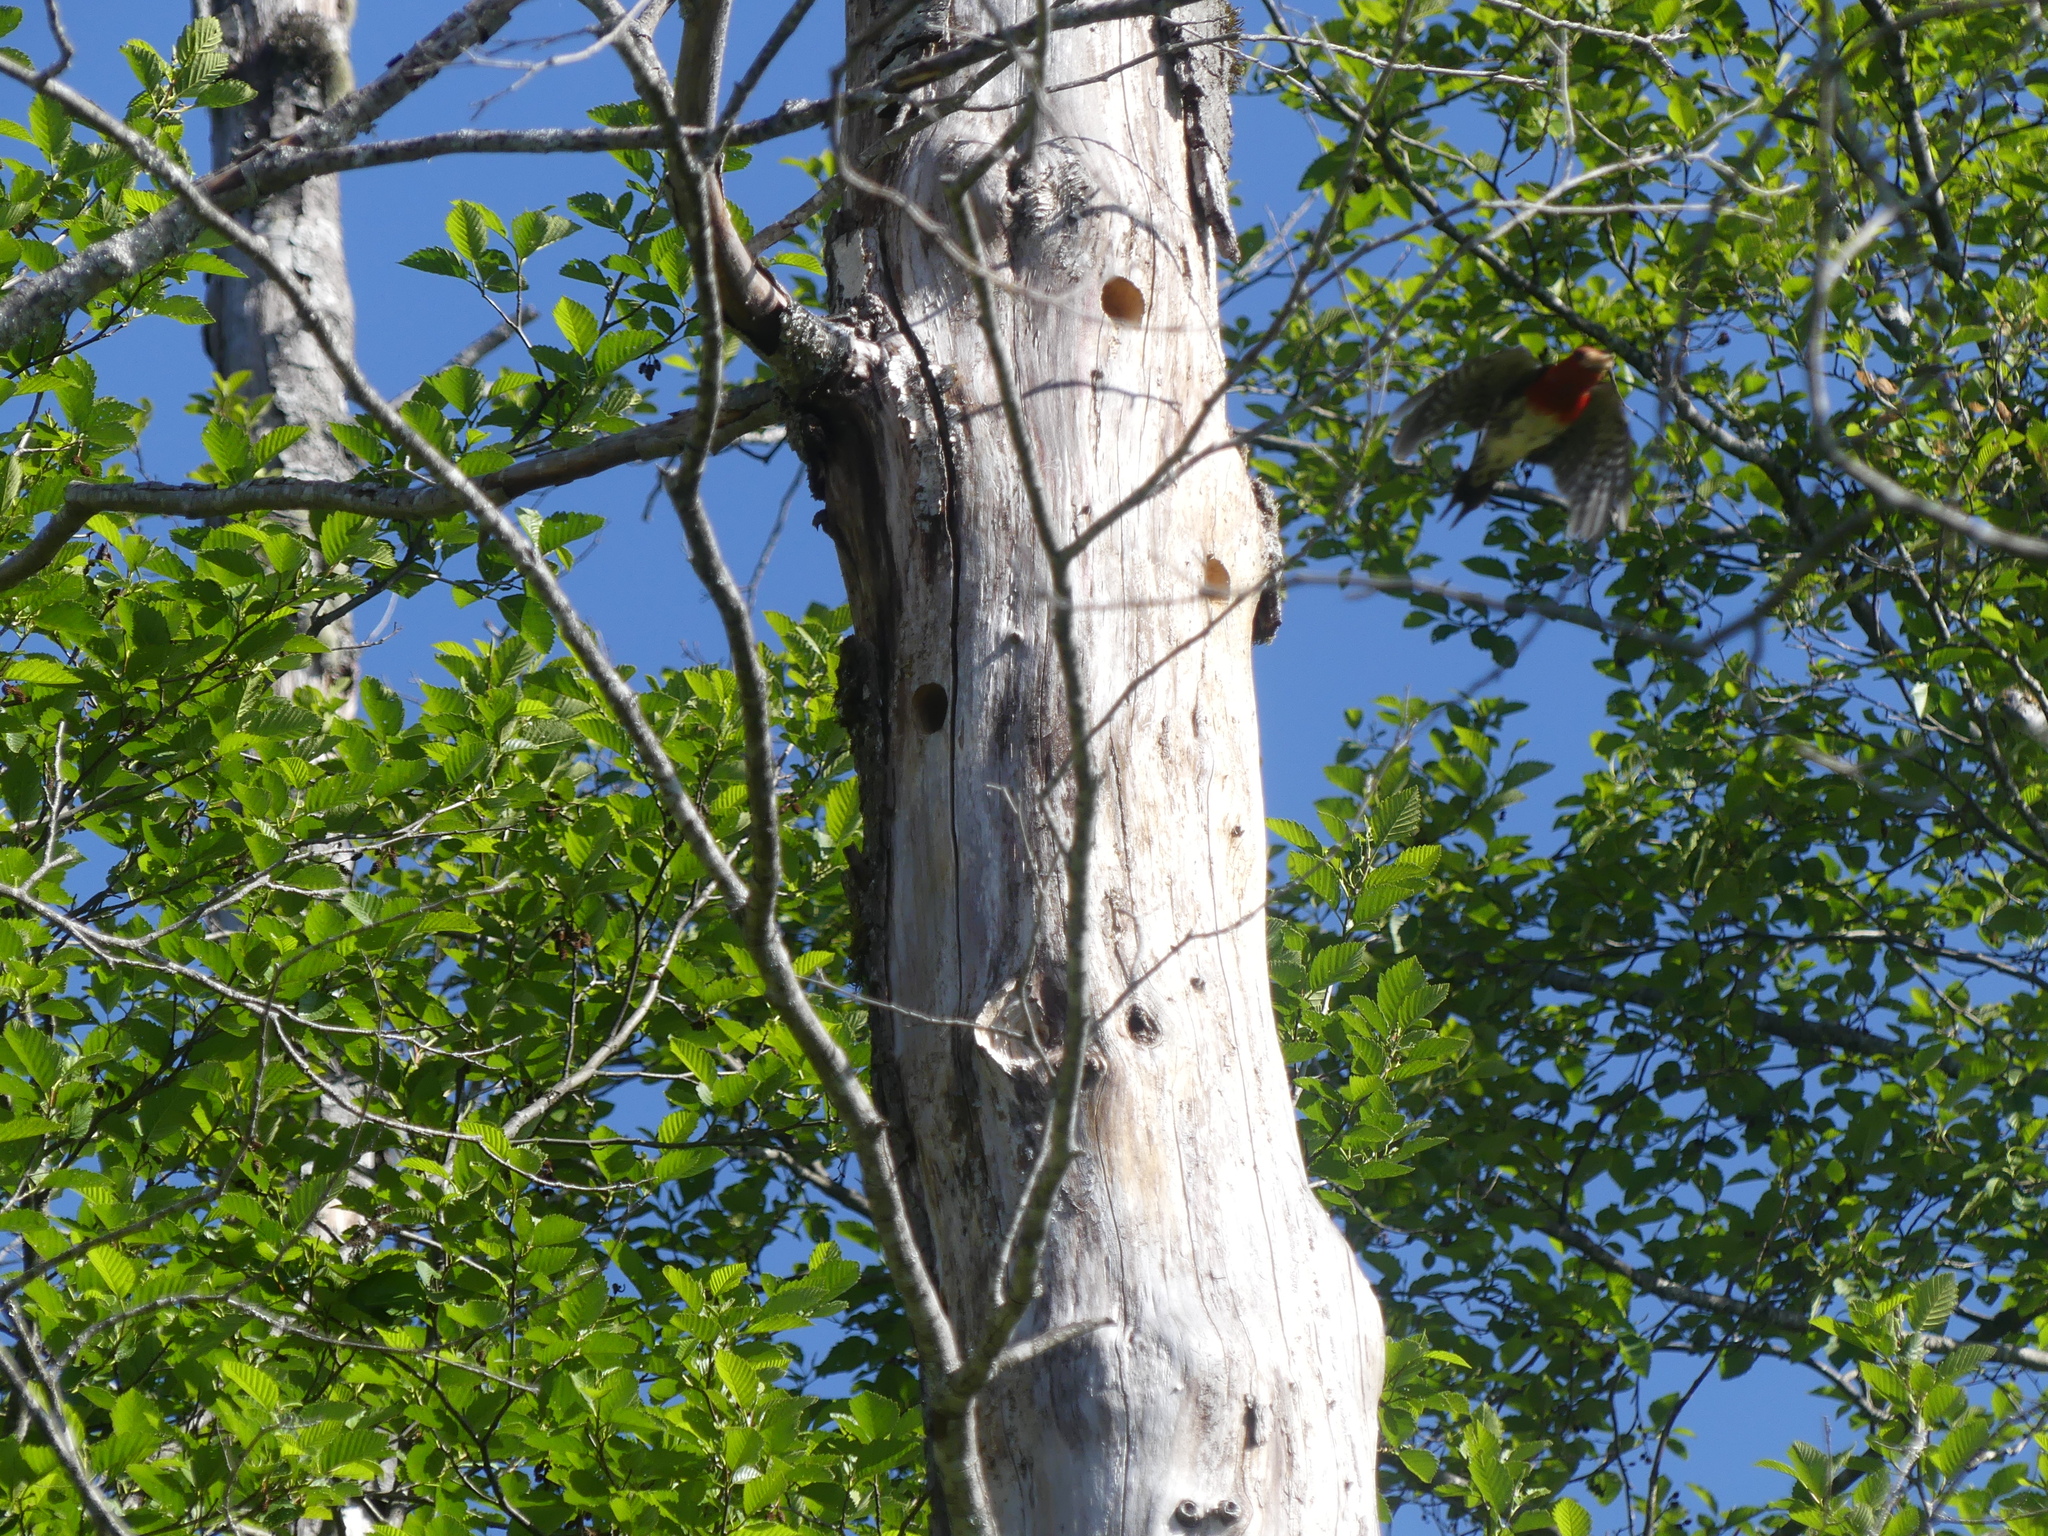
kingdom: Animalia
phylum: Chordata
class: Aves
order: Piciformes
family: Picidae
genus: Sphyrapicus
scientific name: Sphyrapicus ruber
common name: Red-breasted sapsucker
